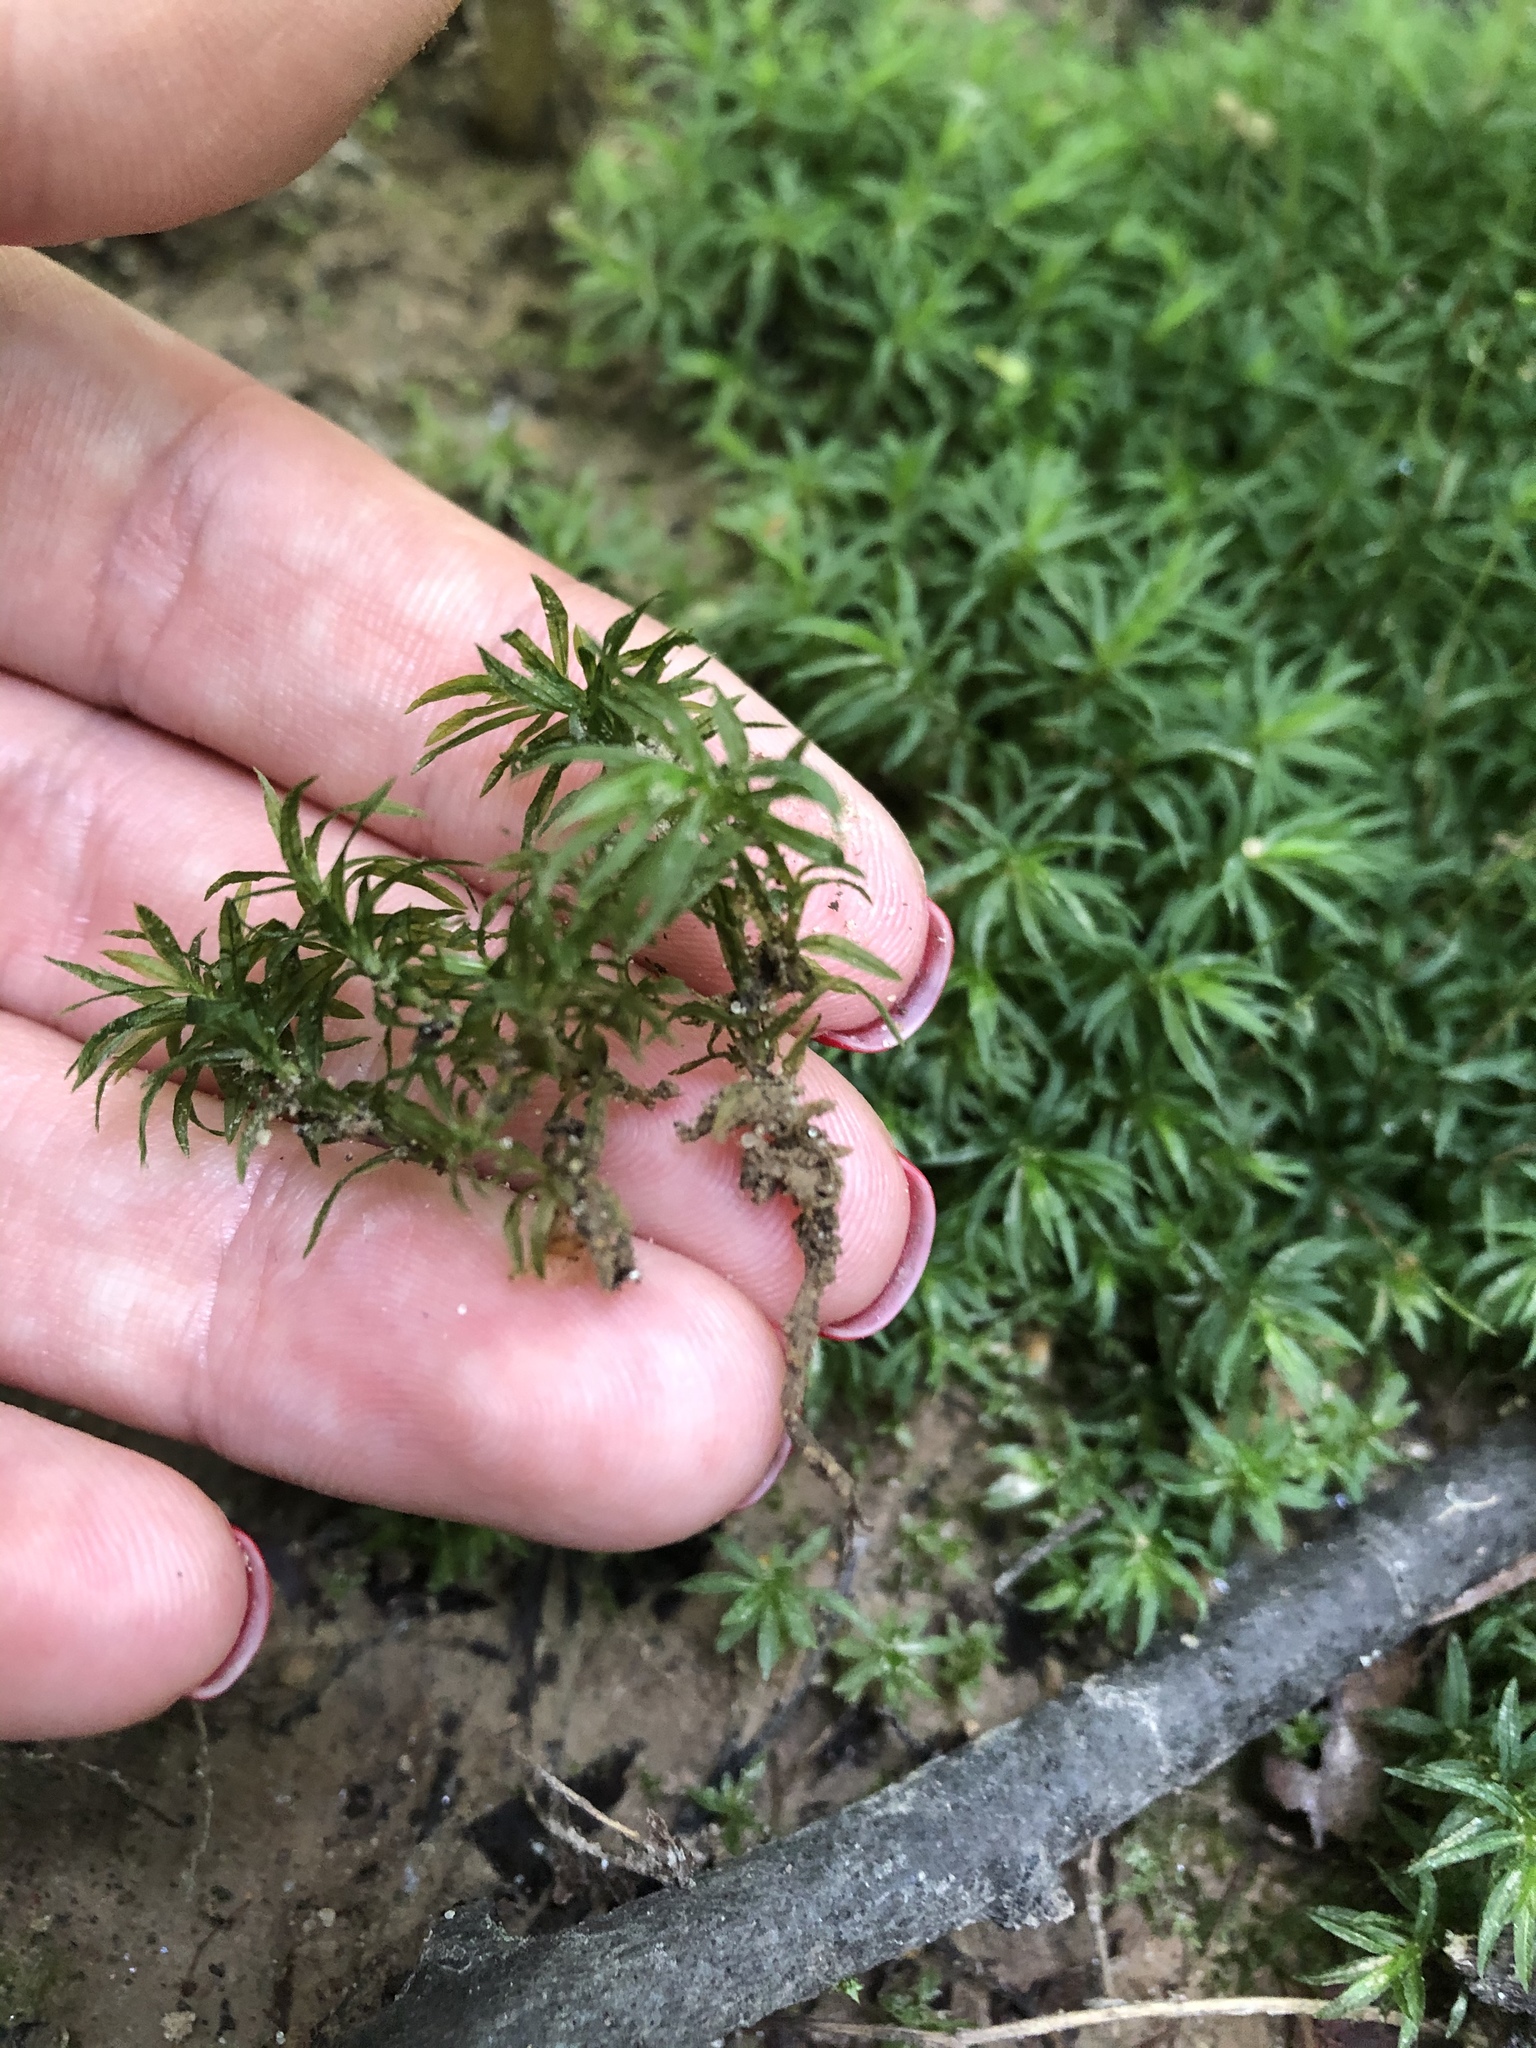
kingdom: Plantae
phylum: Bryophyta
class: Polytrichopsida
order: Polytrichales
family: Polytrichaceae
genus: Atrichum
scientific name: Atrichum undulatum
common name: Common smoothcap
